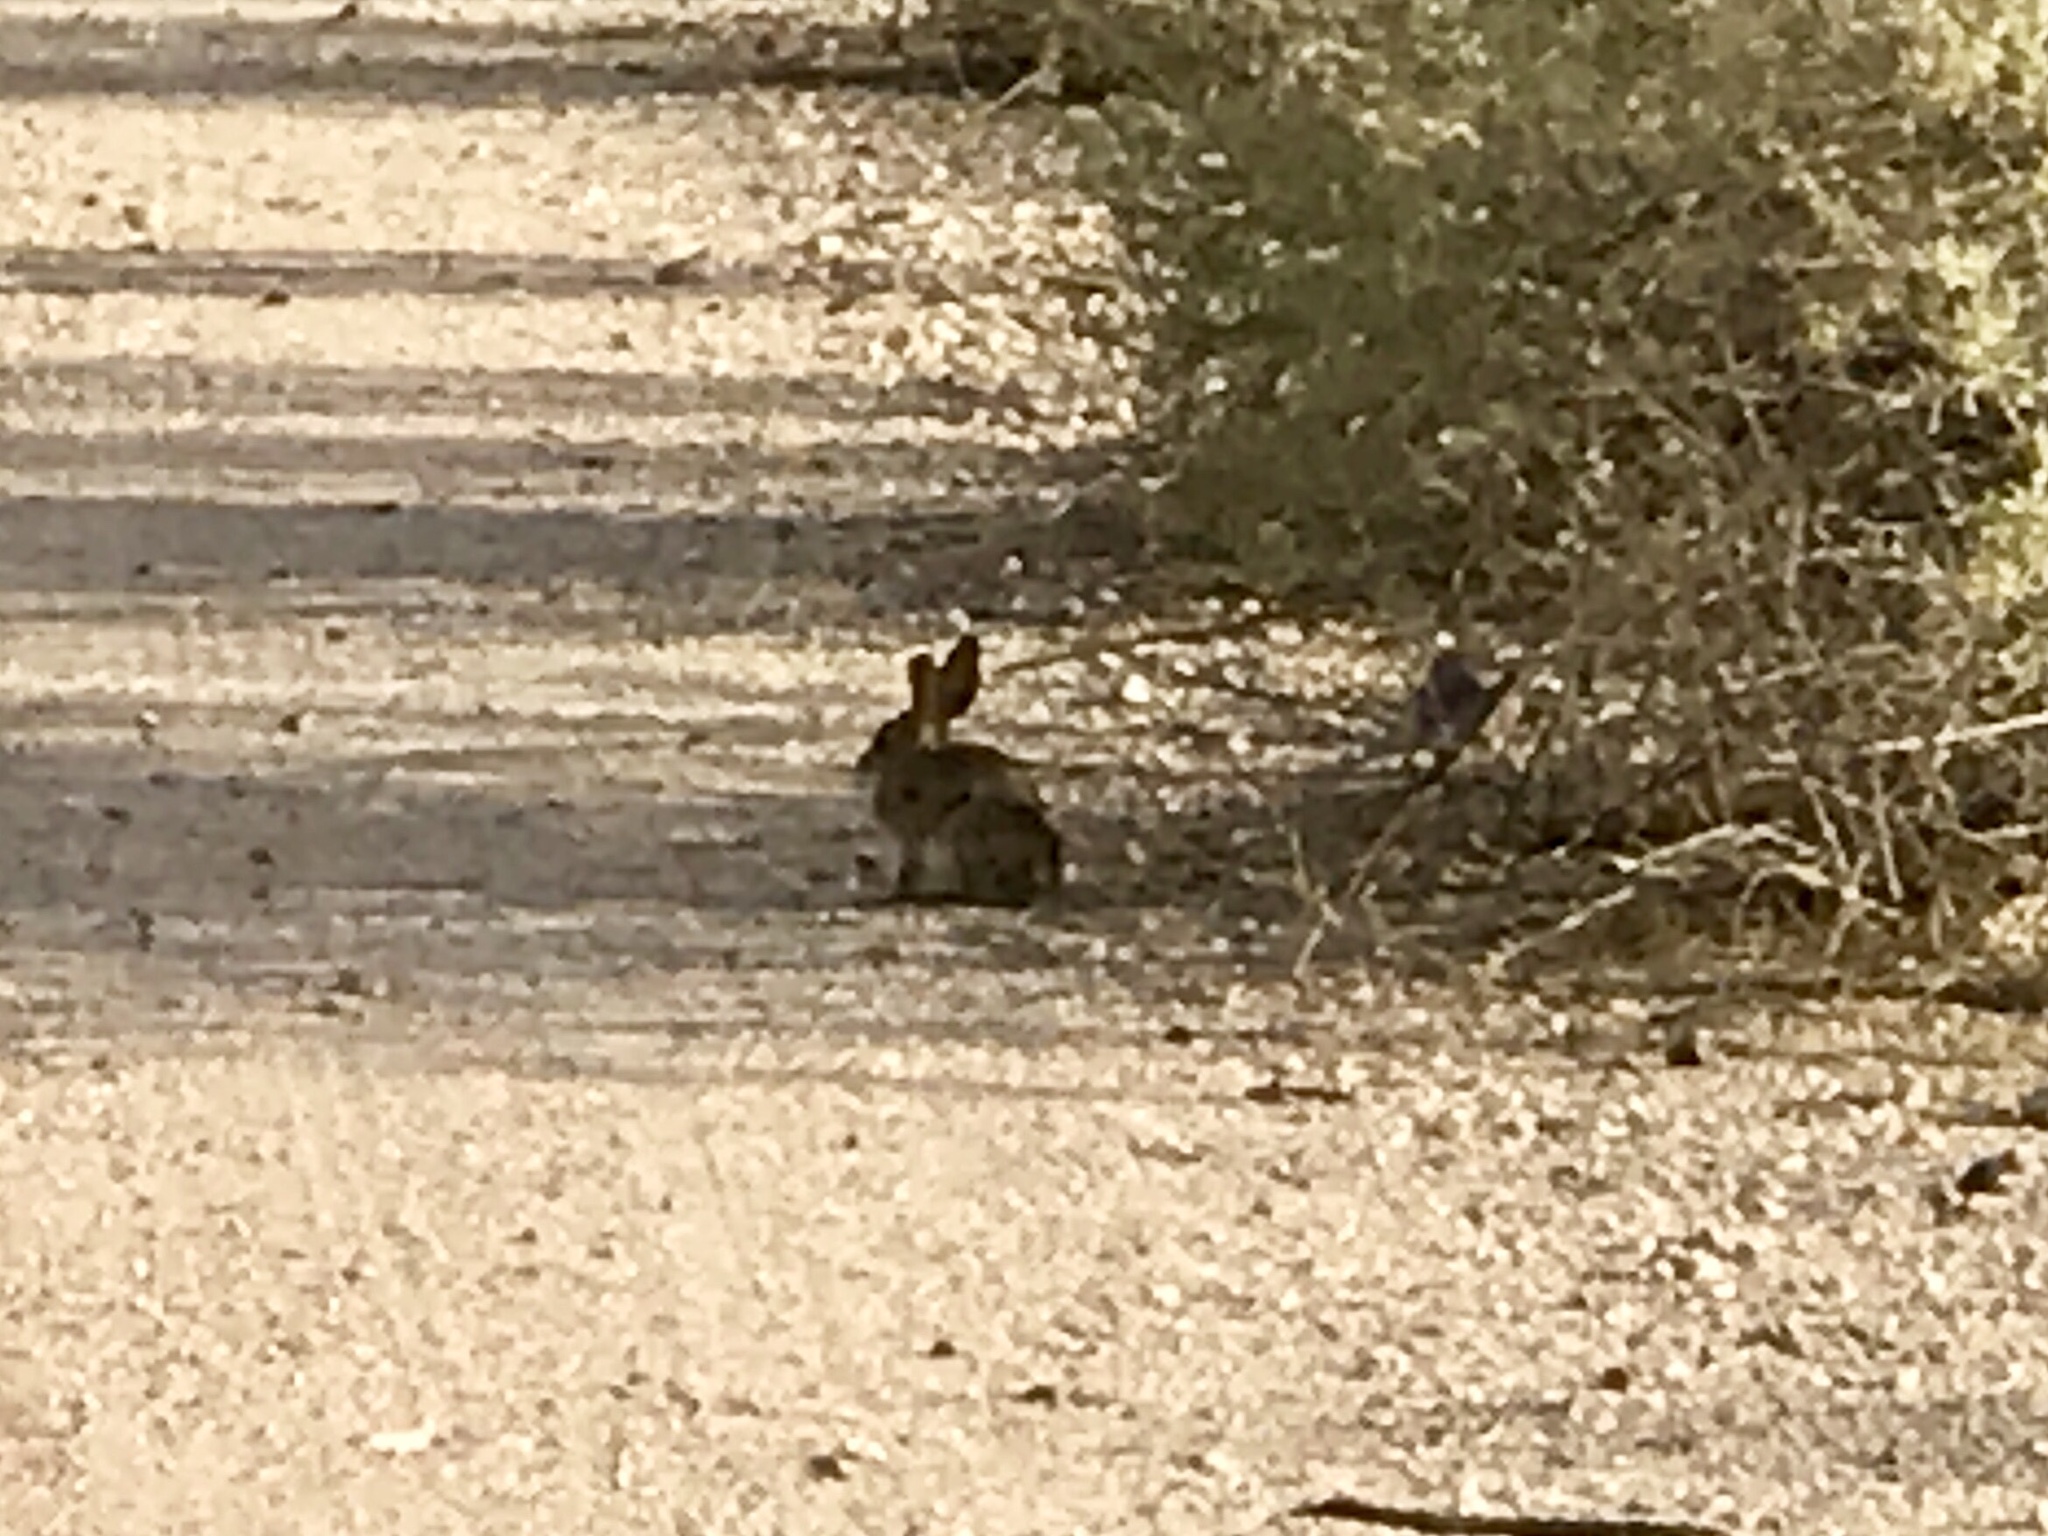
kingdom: Animalia
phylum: Chordata
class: Mammalia
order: Lagomorpha
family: Leporidae
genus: Sylvilagus
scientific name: Sylvilagus audubonii
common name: Desert cottontail
